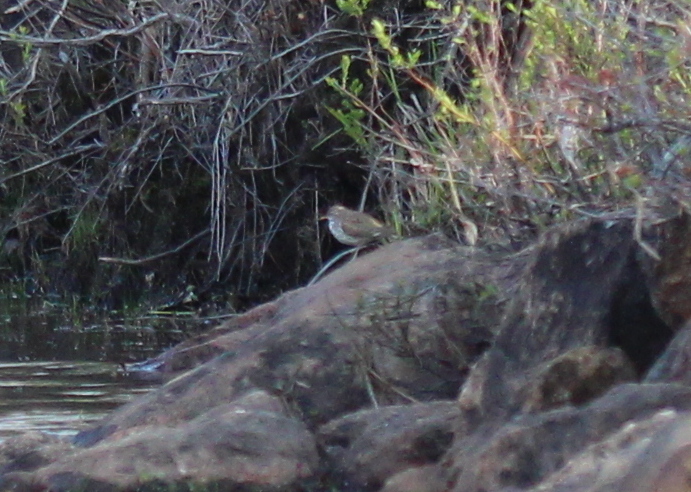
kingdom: Animalia
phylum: Chordata
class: Aves
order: Charadriiformes
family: Scolopacidae
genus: Actitis
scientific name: Actitis macularius
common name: Spotted sandpiper
